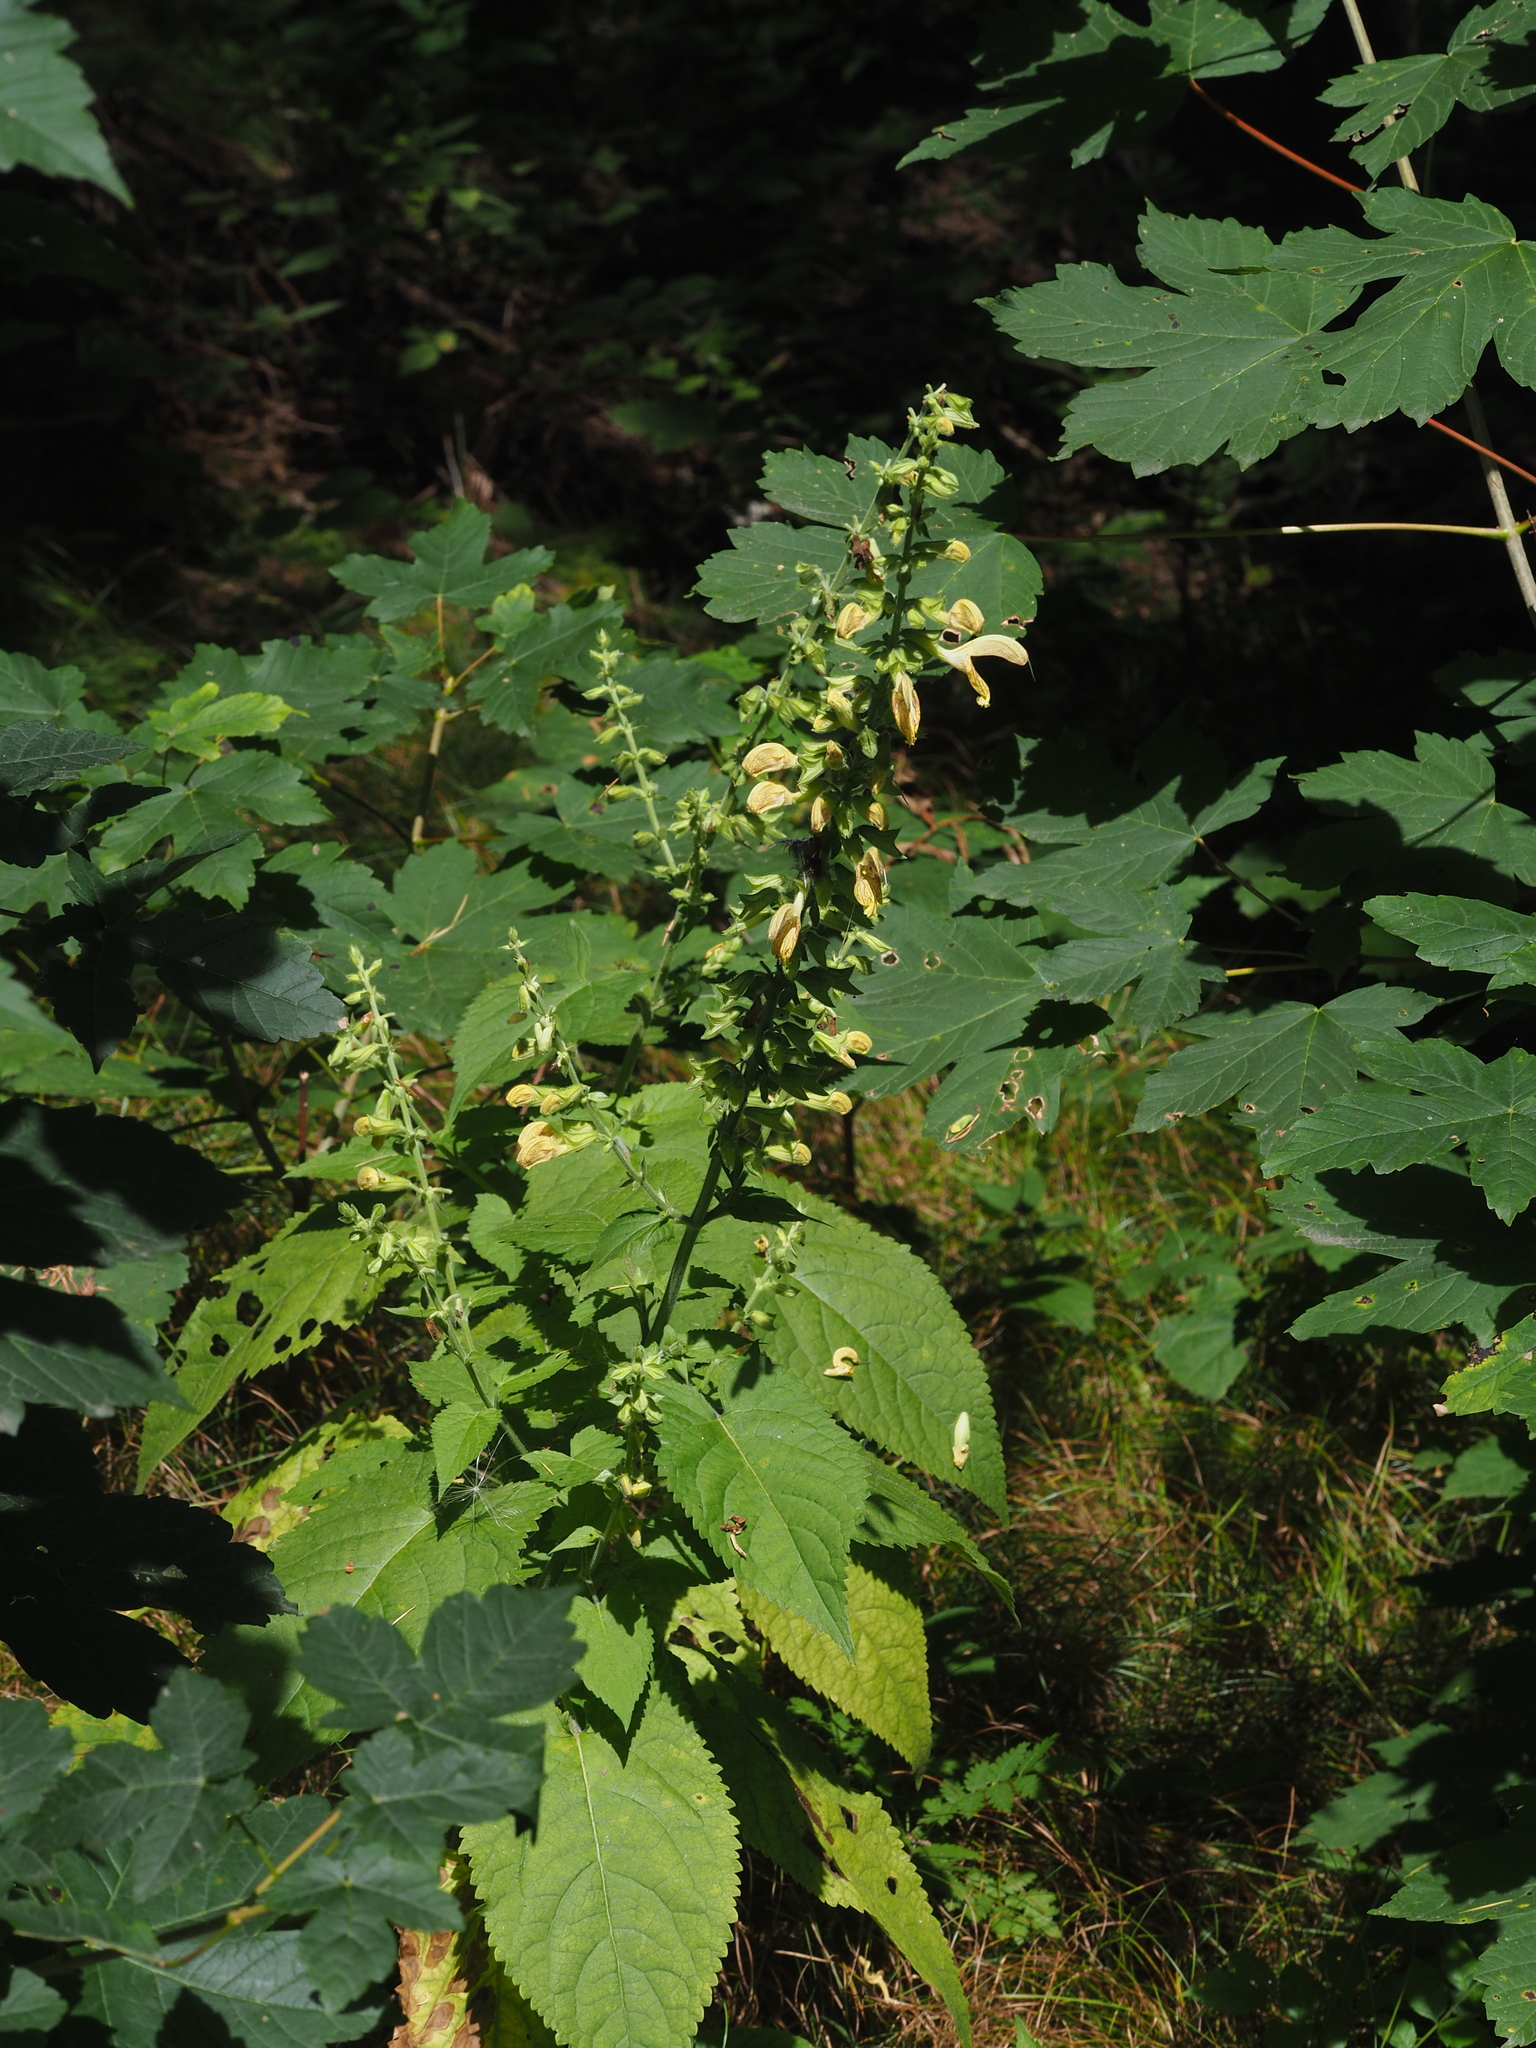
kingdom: Plantae
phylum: Tracheophyta
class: Magnoliopsida
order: Lamiales
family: Lamiaceae
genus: Salvia
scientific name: Salvia glutinosa
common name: Sticky clary
